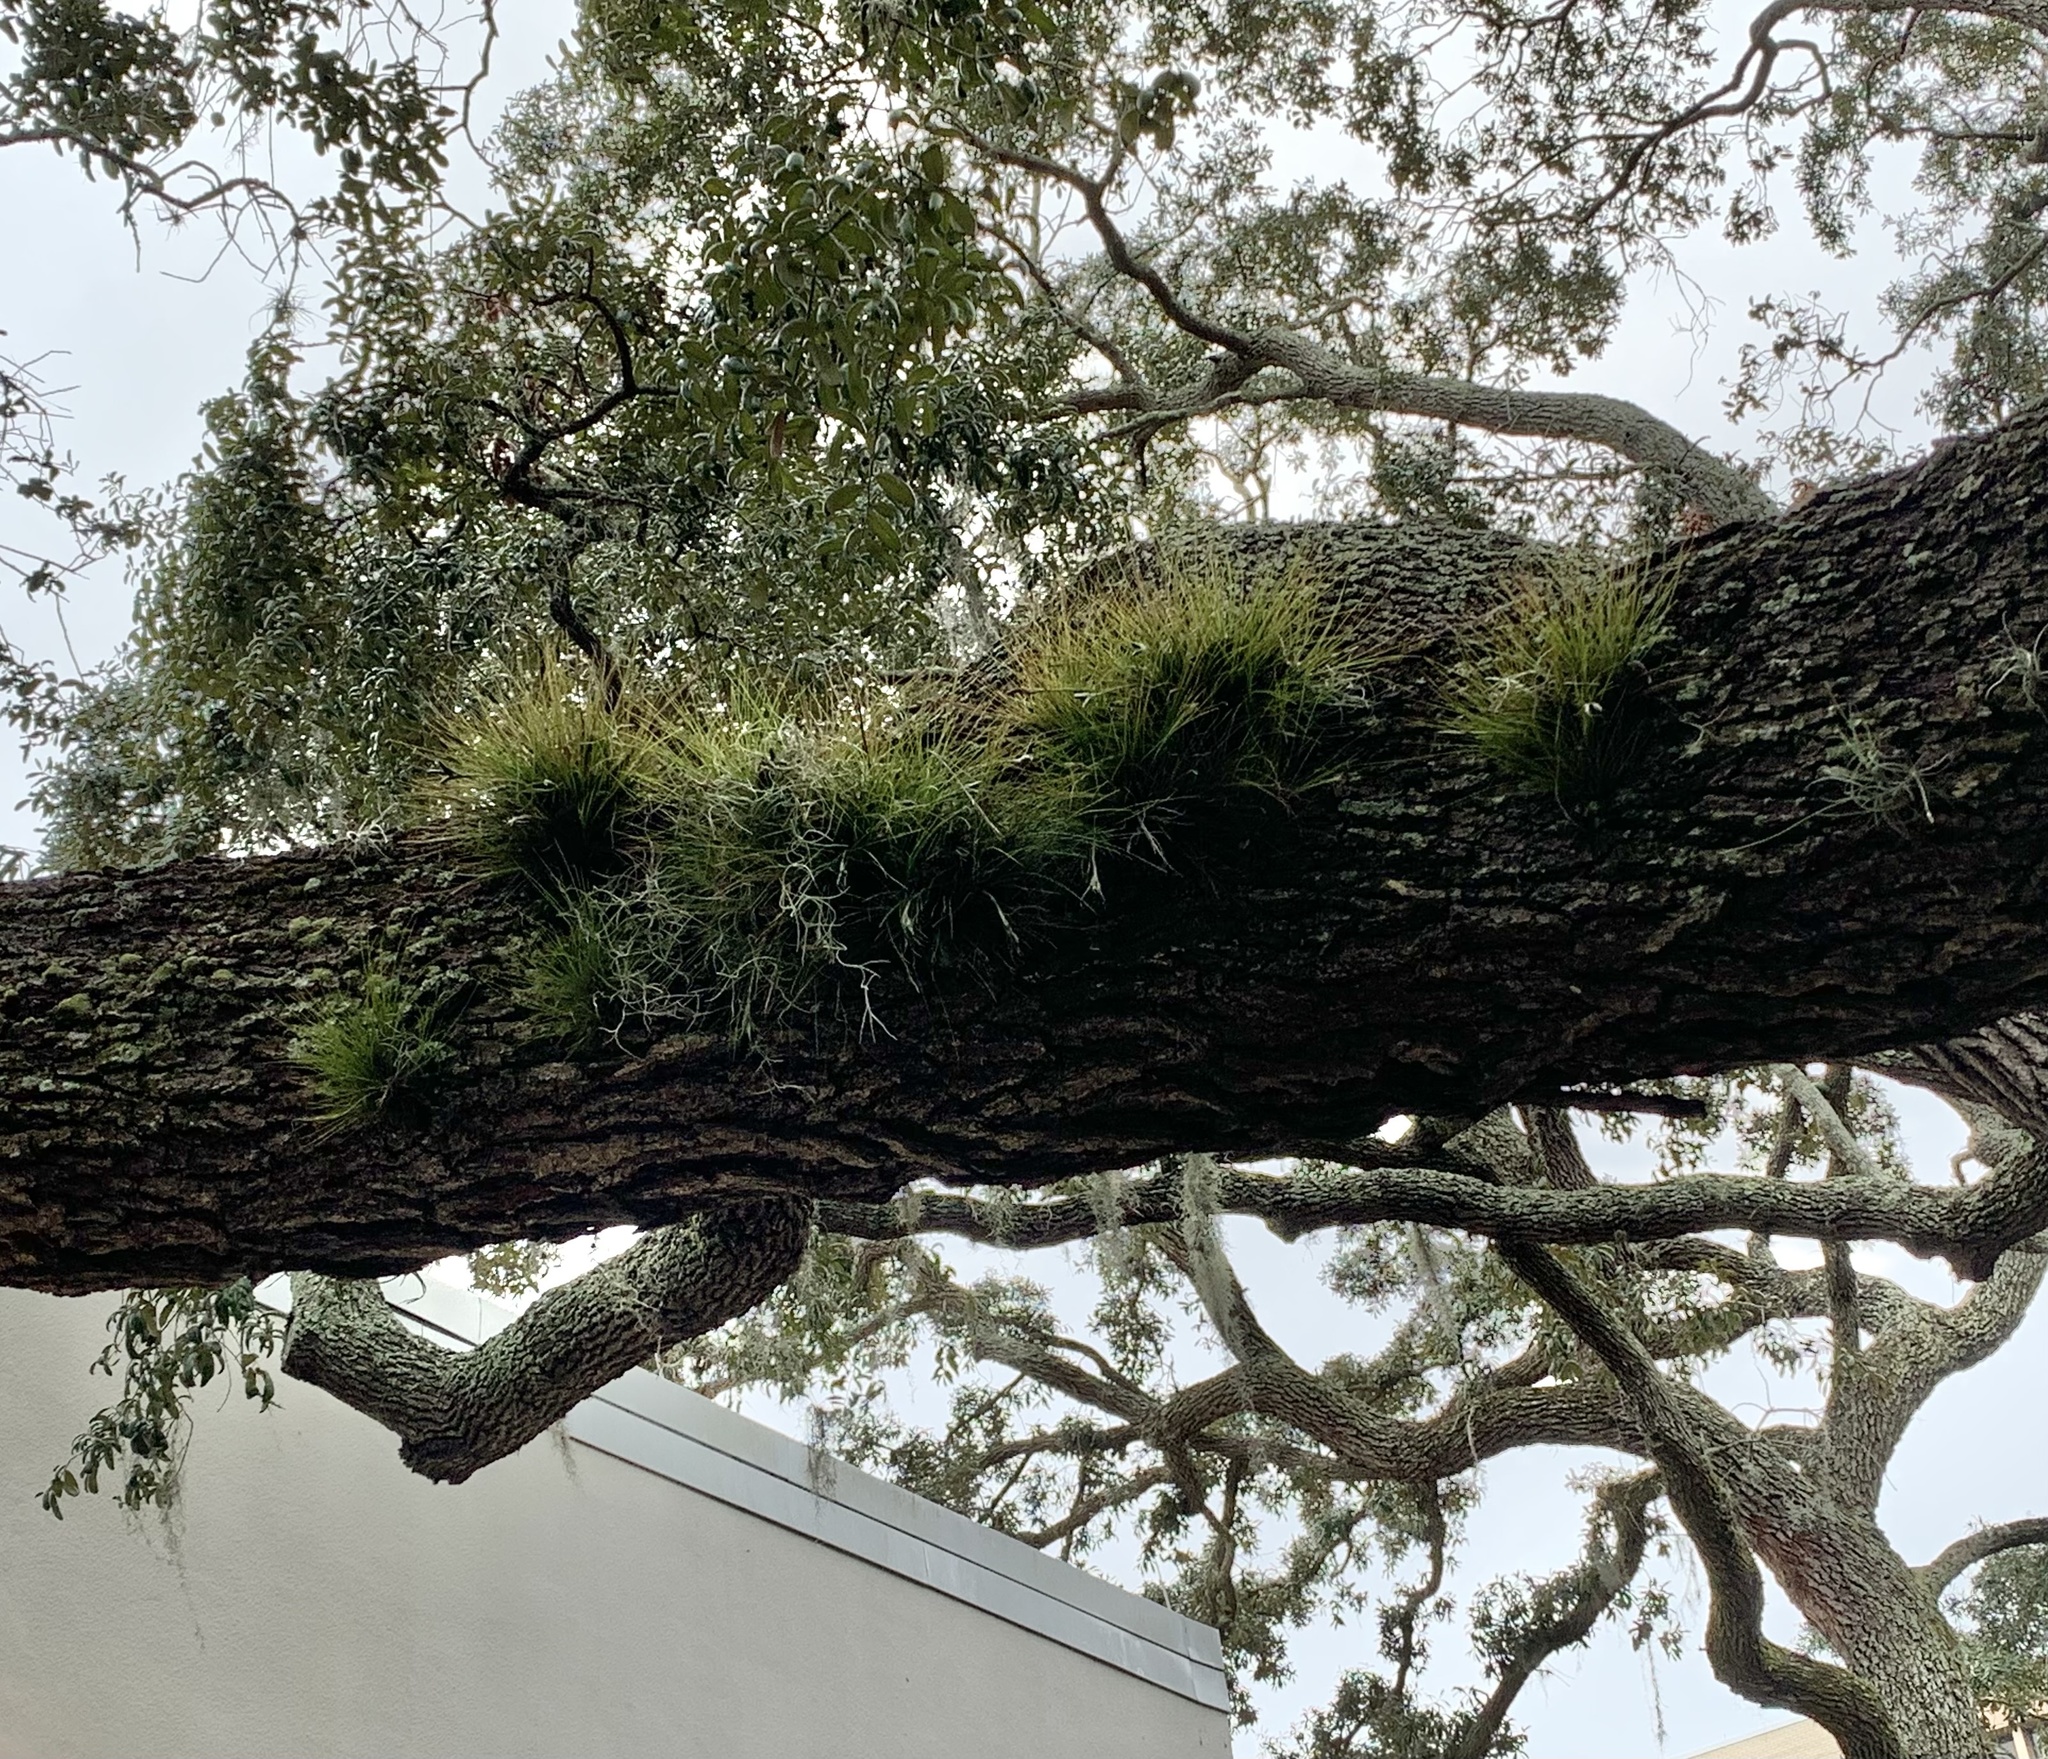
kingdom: Plantae
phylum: Tracheophyta
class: Liliopsida
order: Poales
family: Bromeliaceae
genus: Tillandsia
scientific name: Tillandsia setacea
